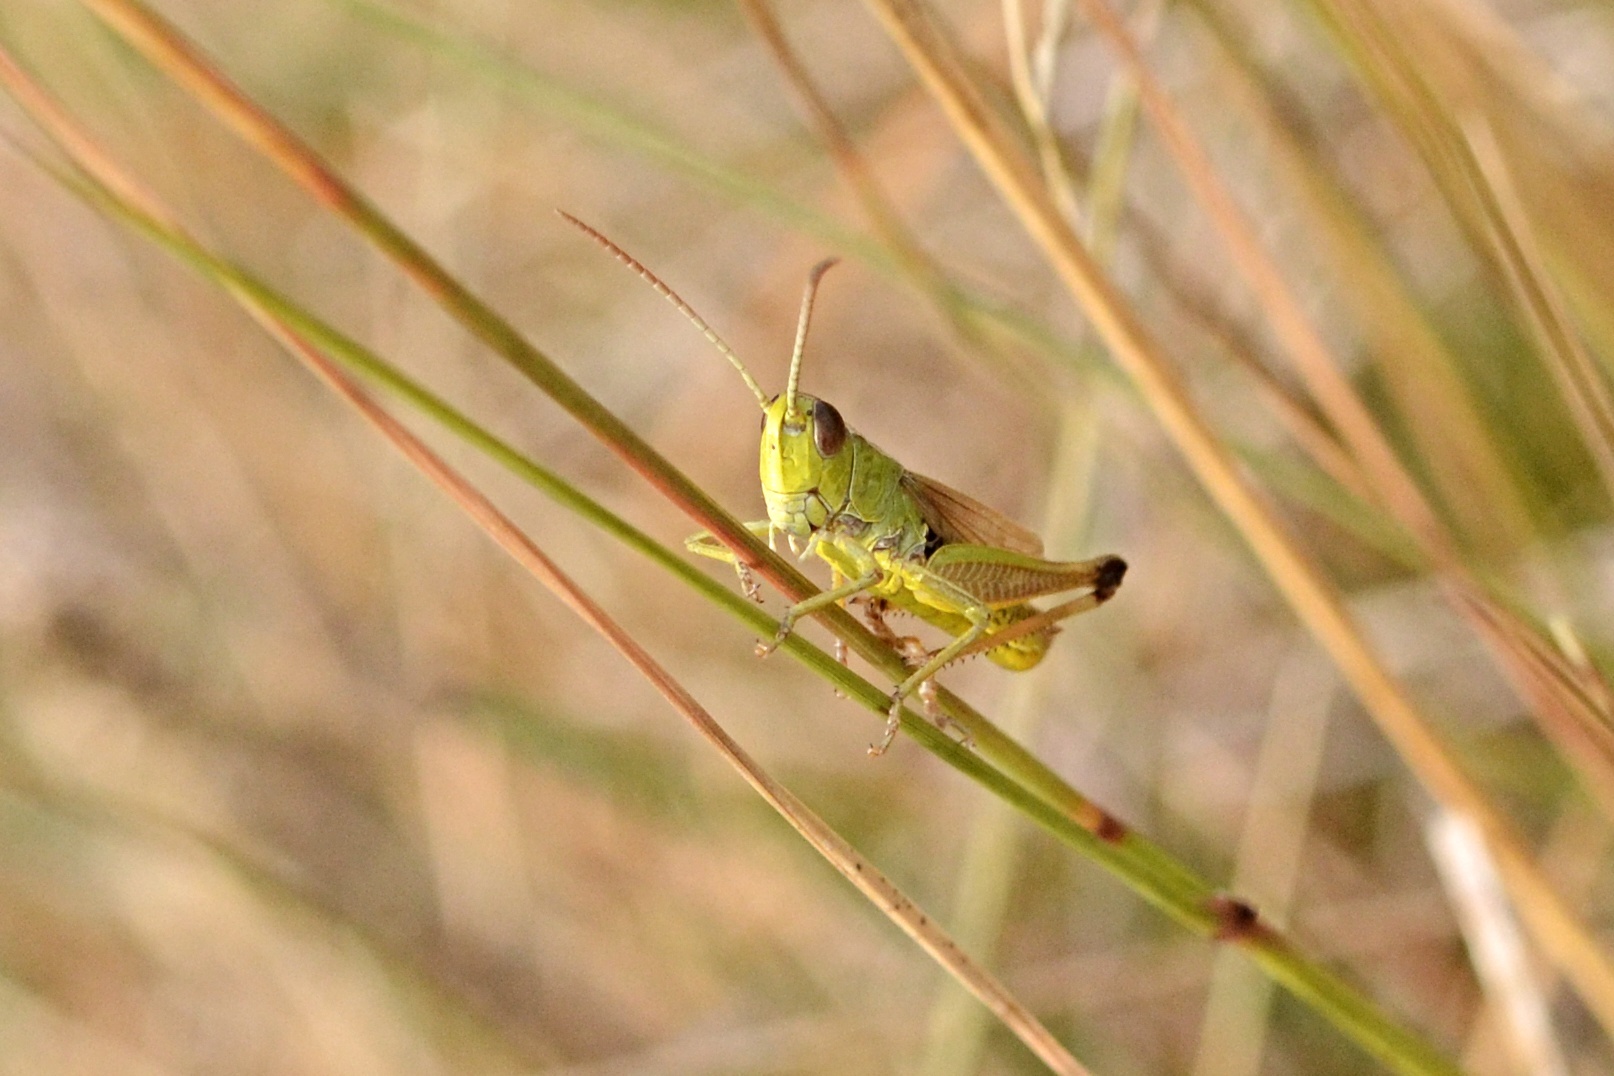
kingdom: Animalia
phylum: Arthropoda
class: Insecta
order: Orthoptera
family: Acrididae
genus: Pseudochorthippus
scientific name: Pseudochorthippus parallelus
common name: Meadow grasshopper
